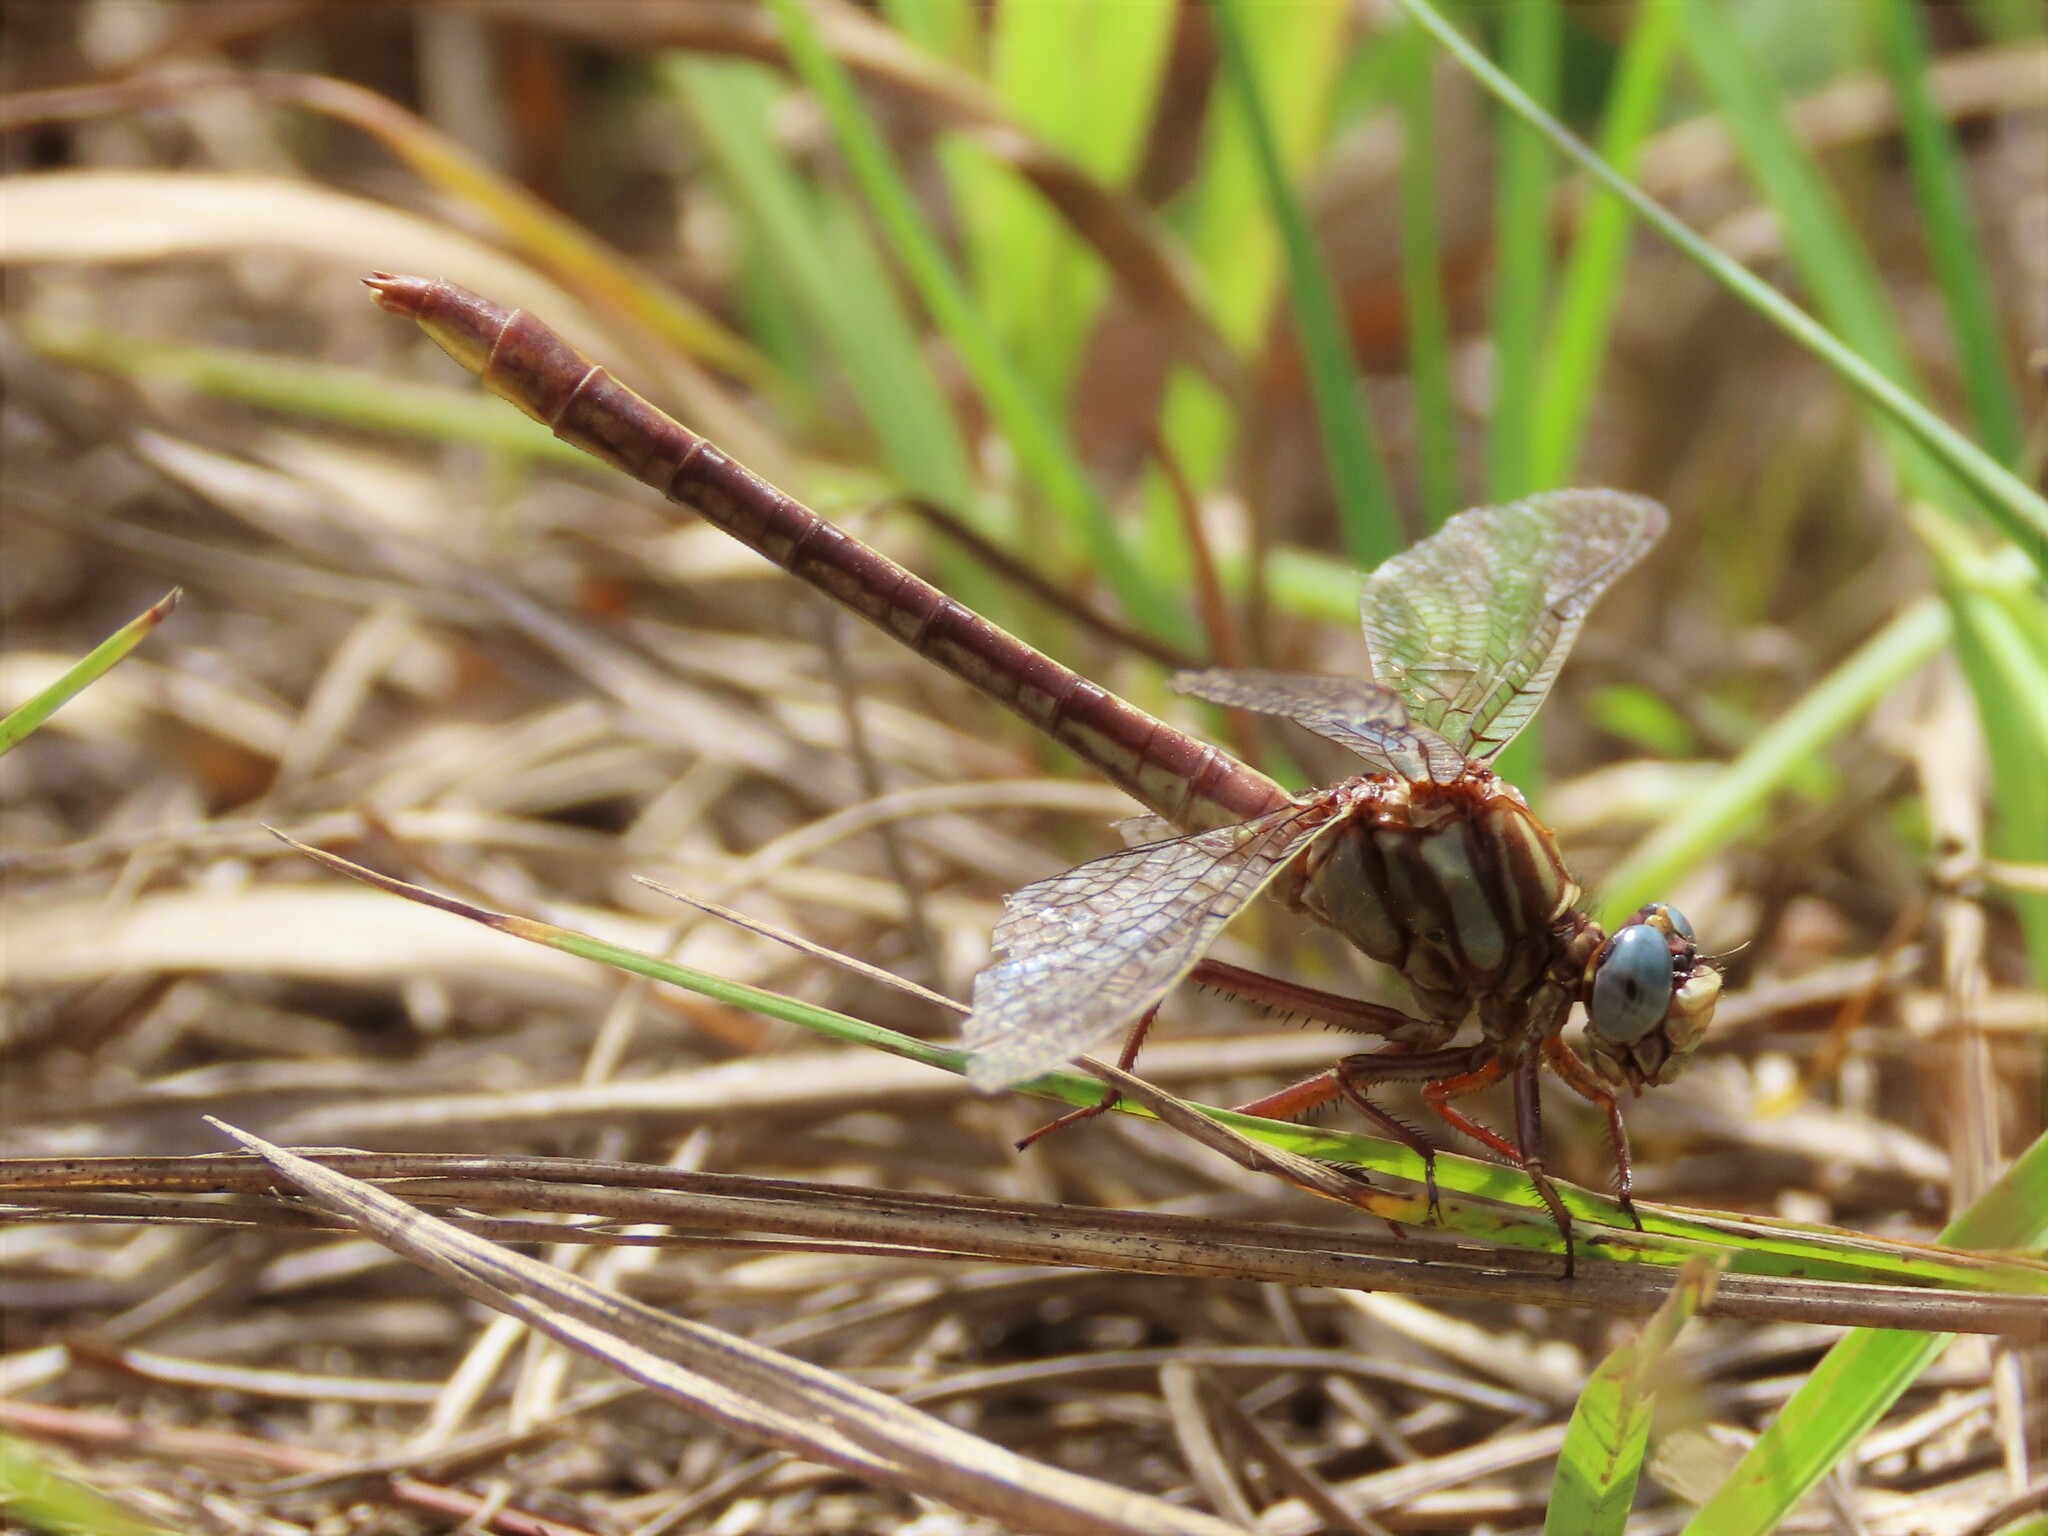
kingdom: Animalia
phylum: Arthropoda
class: Insecta
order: Odonata
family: Gomphidae
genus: Phanogomphus
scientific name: Phanogomphus minutus
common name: Cypress clubtail
